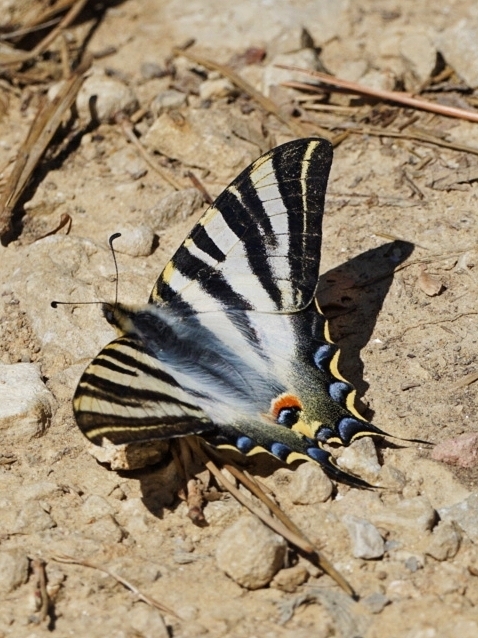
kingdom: Animalia
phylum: Arthropoda
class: Insecta
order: Lepidoptera
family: Papilionidae
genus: Iphiclides
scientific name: Iphiclides feisthamelii
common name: Iberian scarce swallowtail
